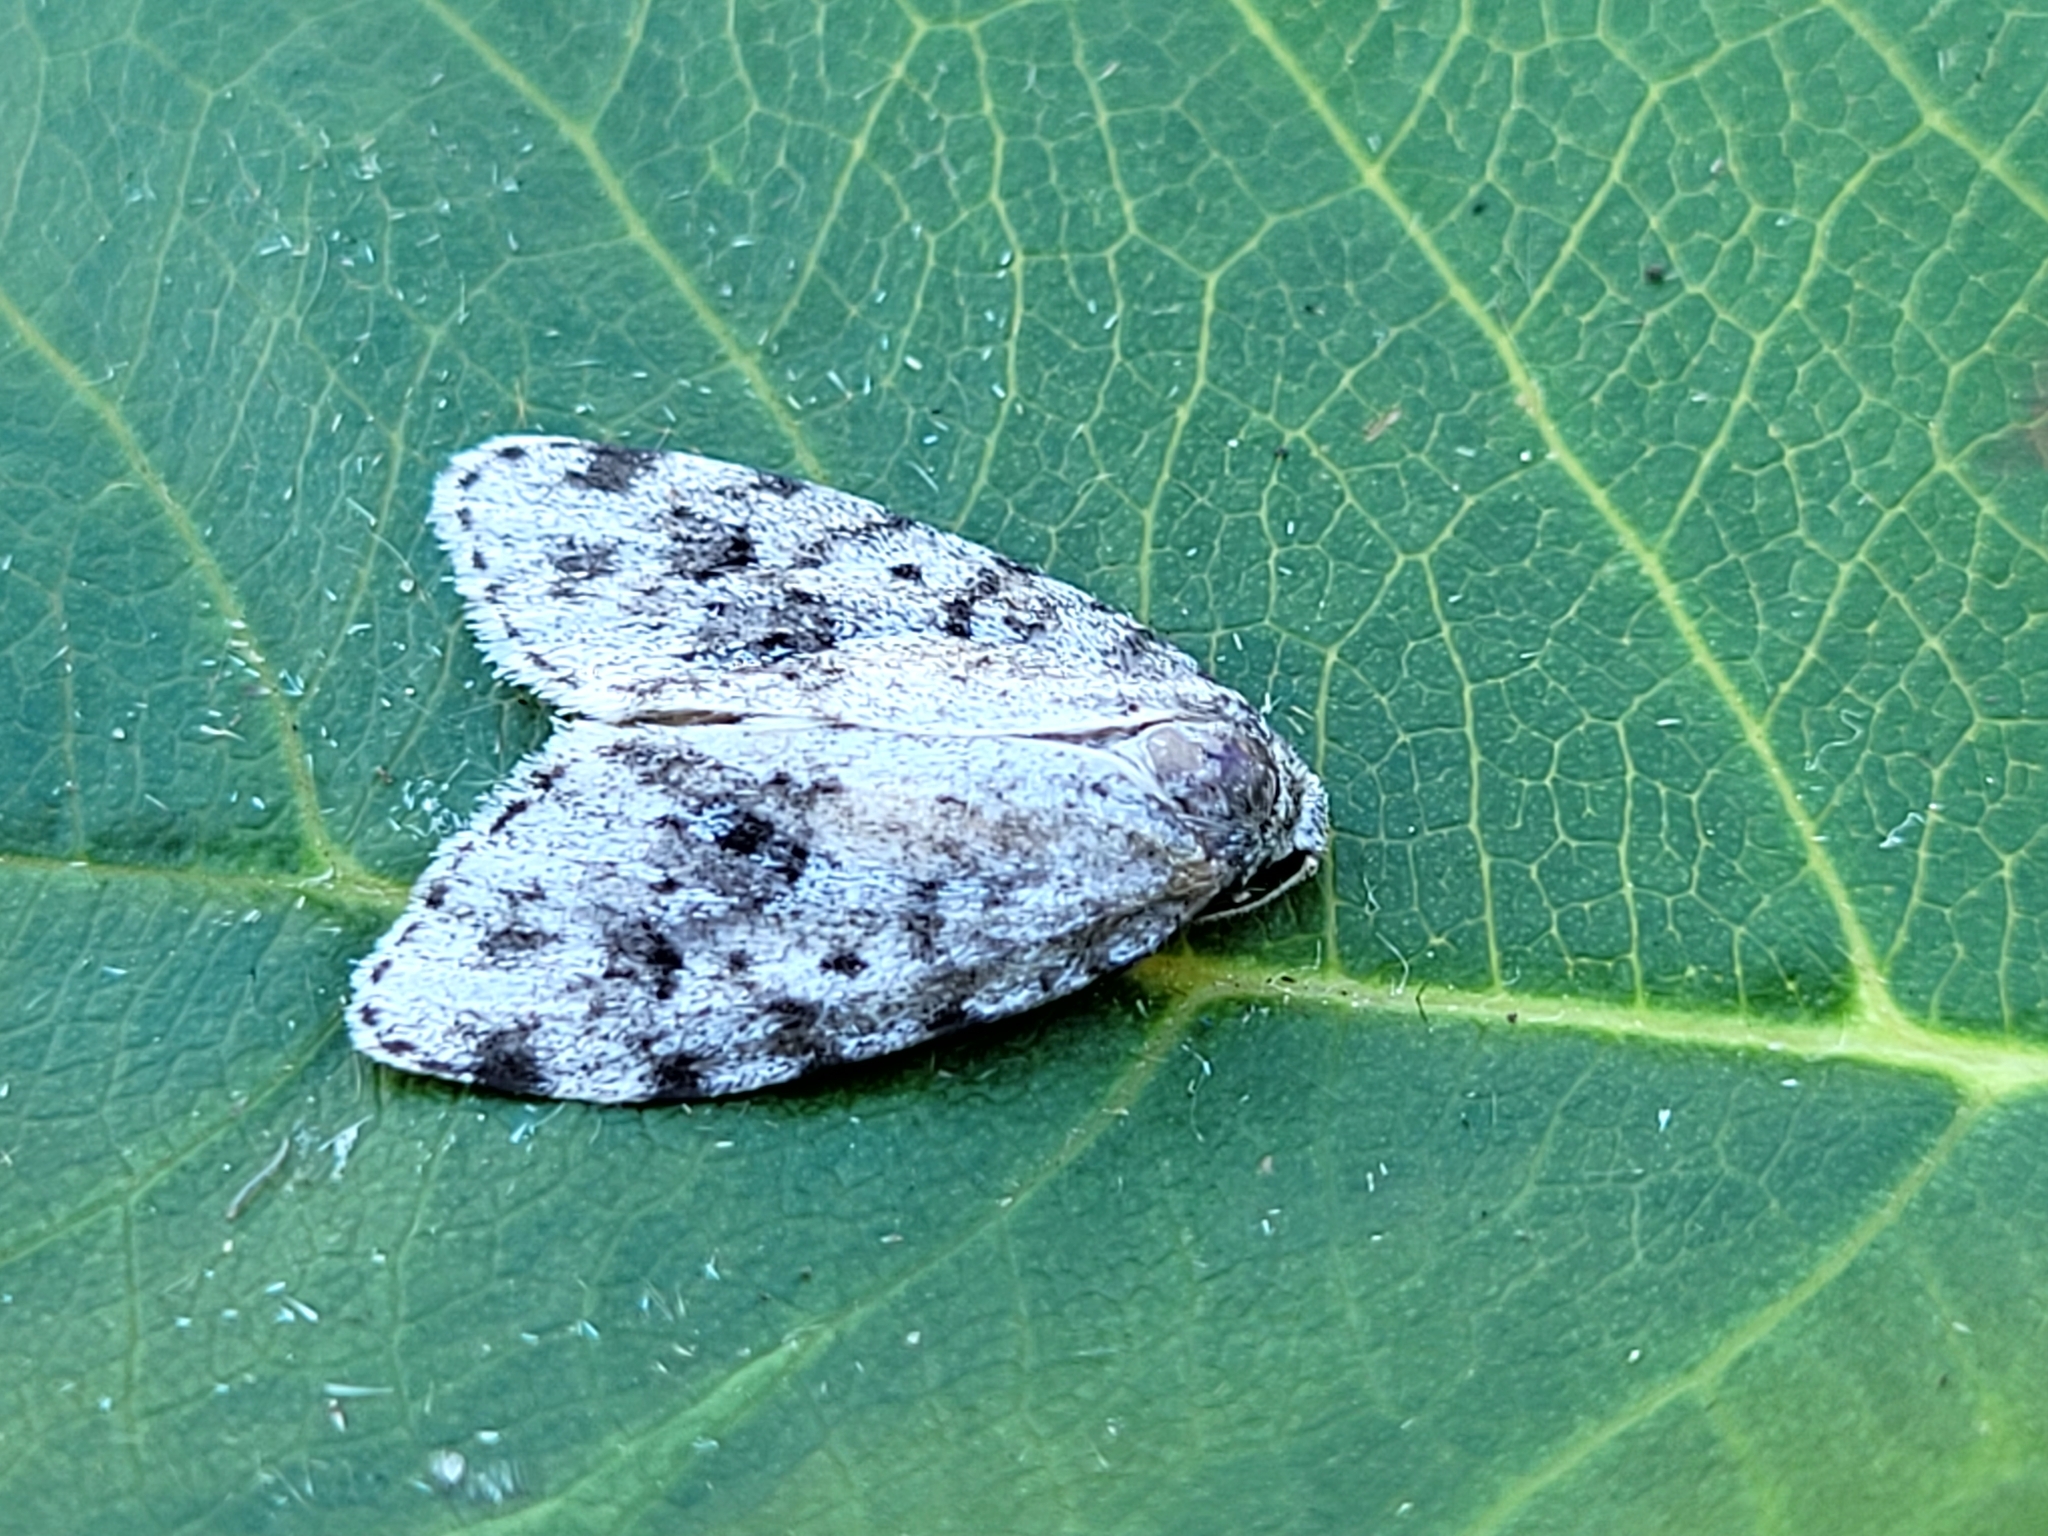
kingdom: Animalia
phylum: Arthropoda
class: Insecta
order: Lepidoptera
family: Erebidae
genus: Clemensia
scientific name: Clemensia umbrata
